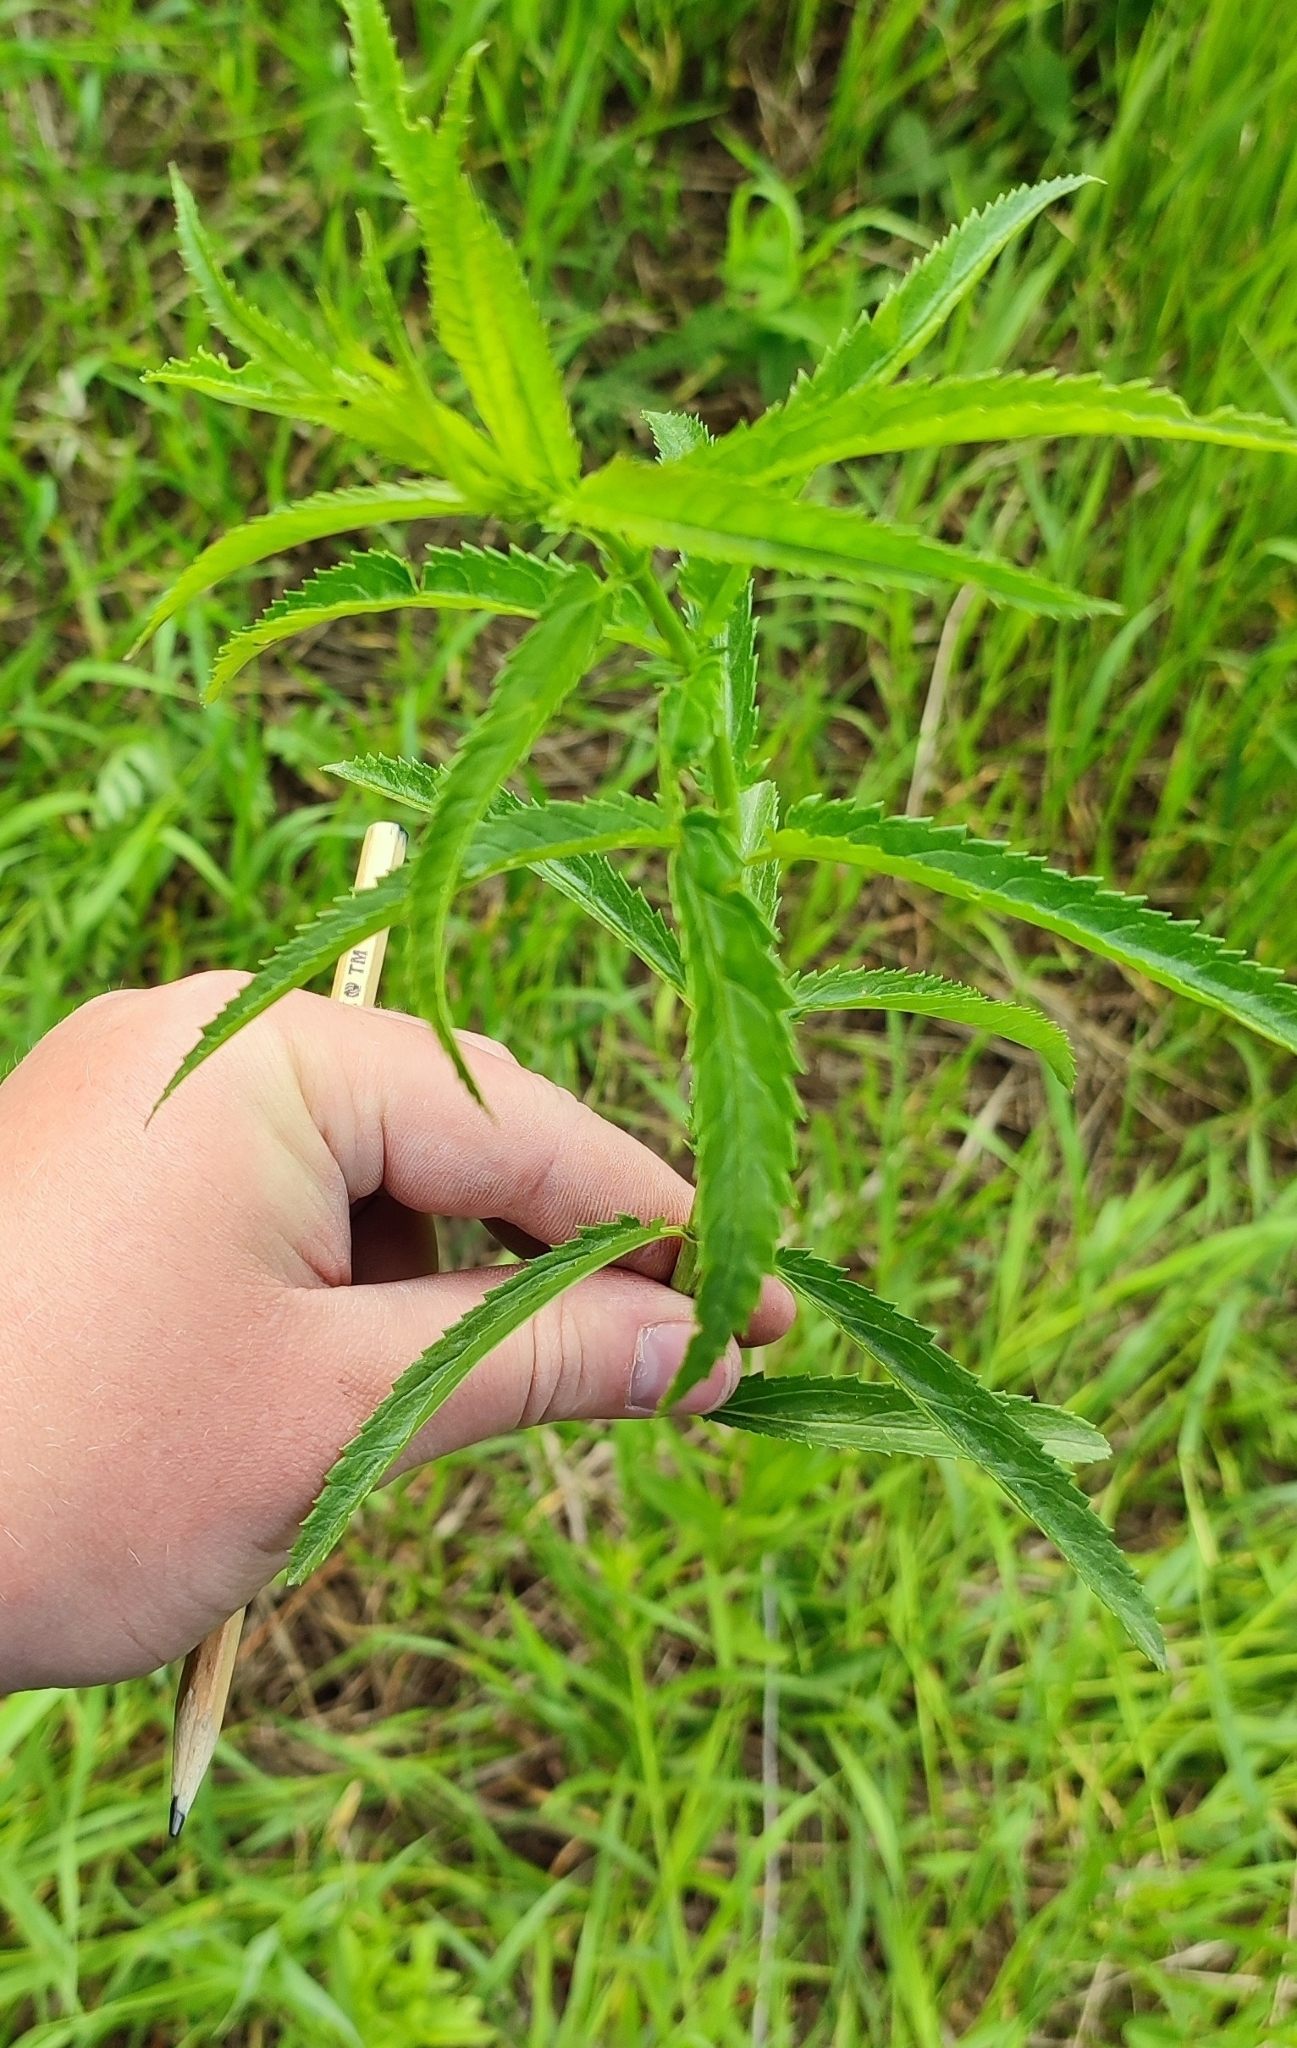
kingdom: Plantae
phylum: Tracheophyta
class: Magnoliopsida
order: Lamiales
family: Plantaginaceae
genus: Veronica
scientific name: Veronica longifolia
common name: Garden speedwell
